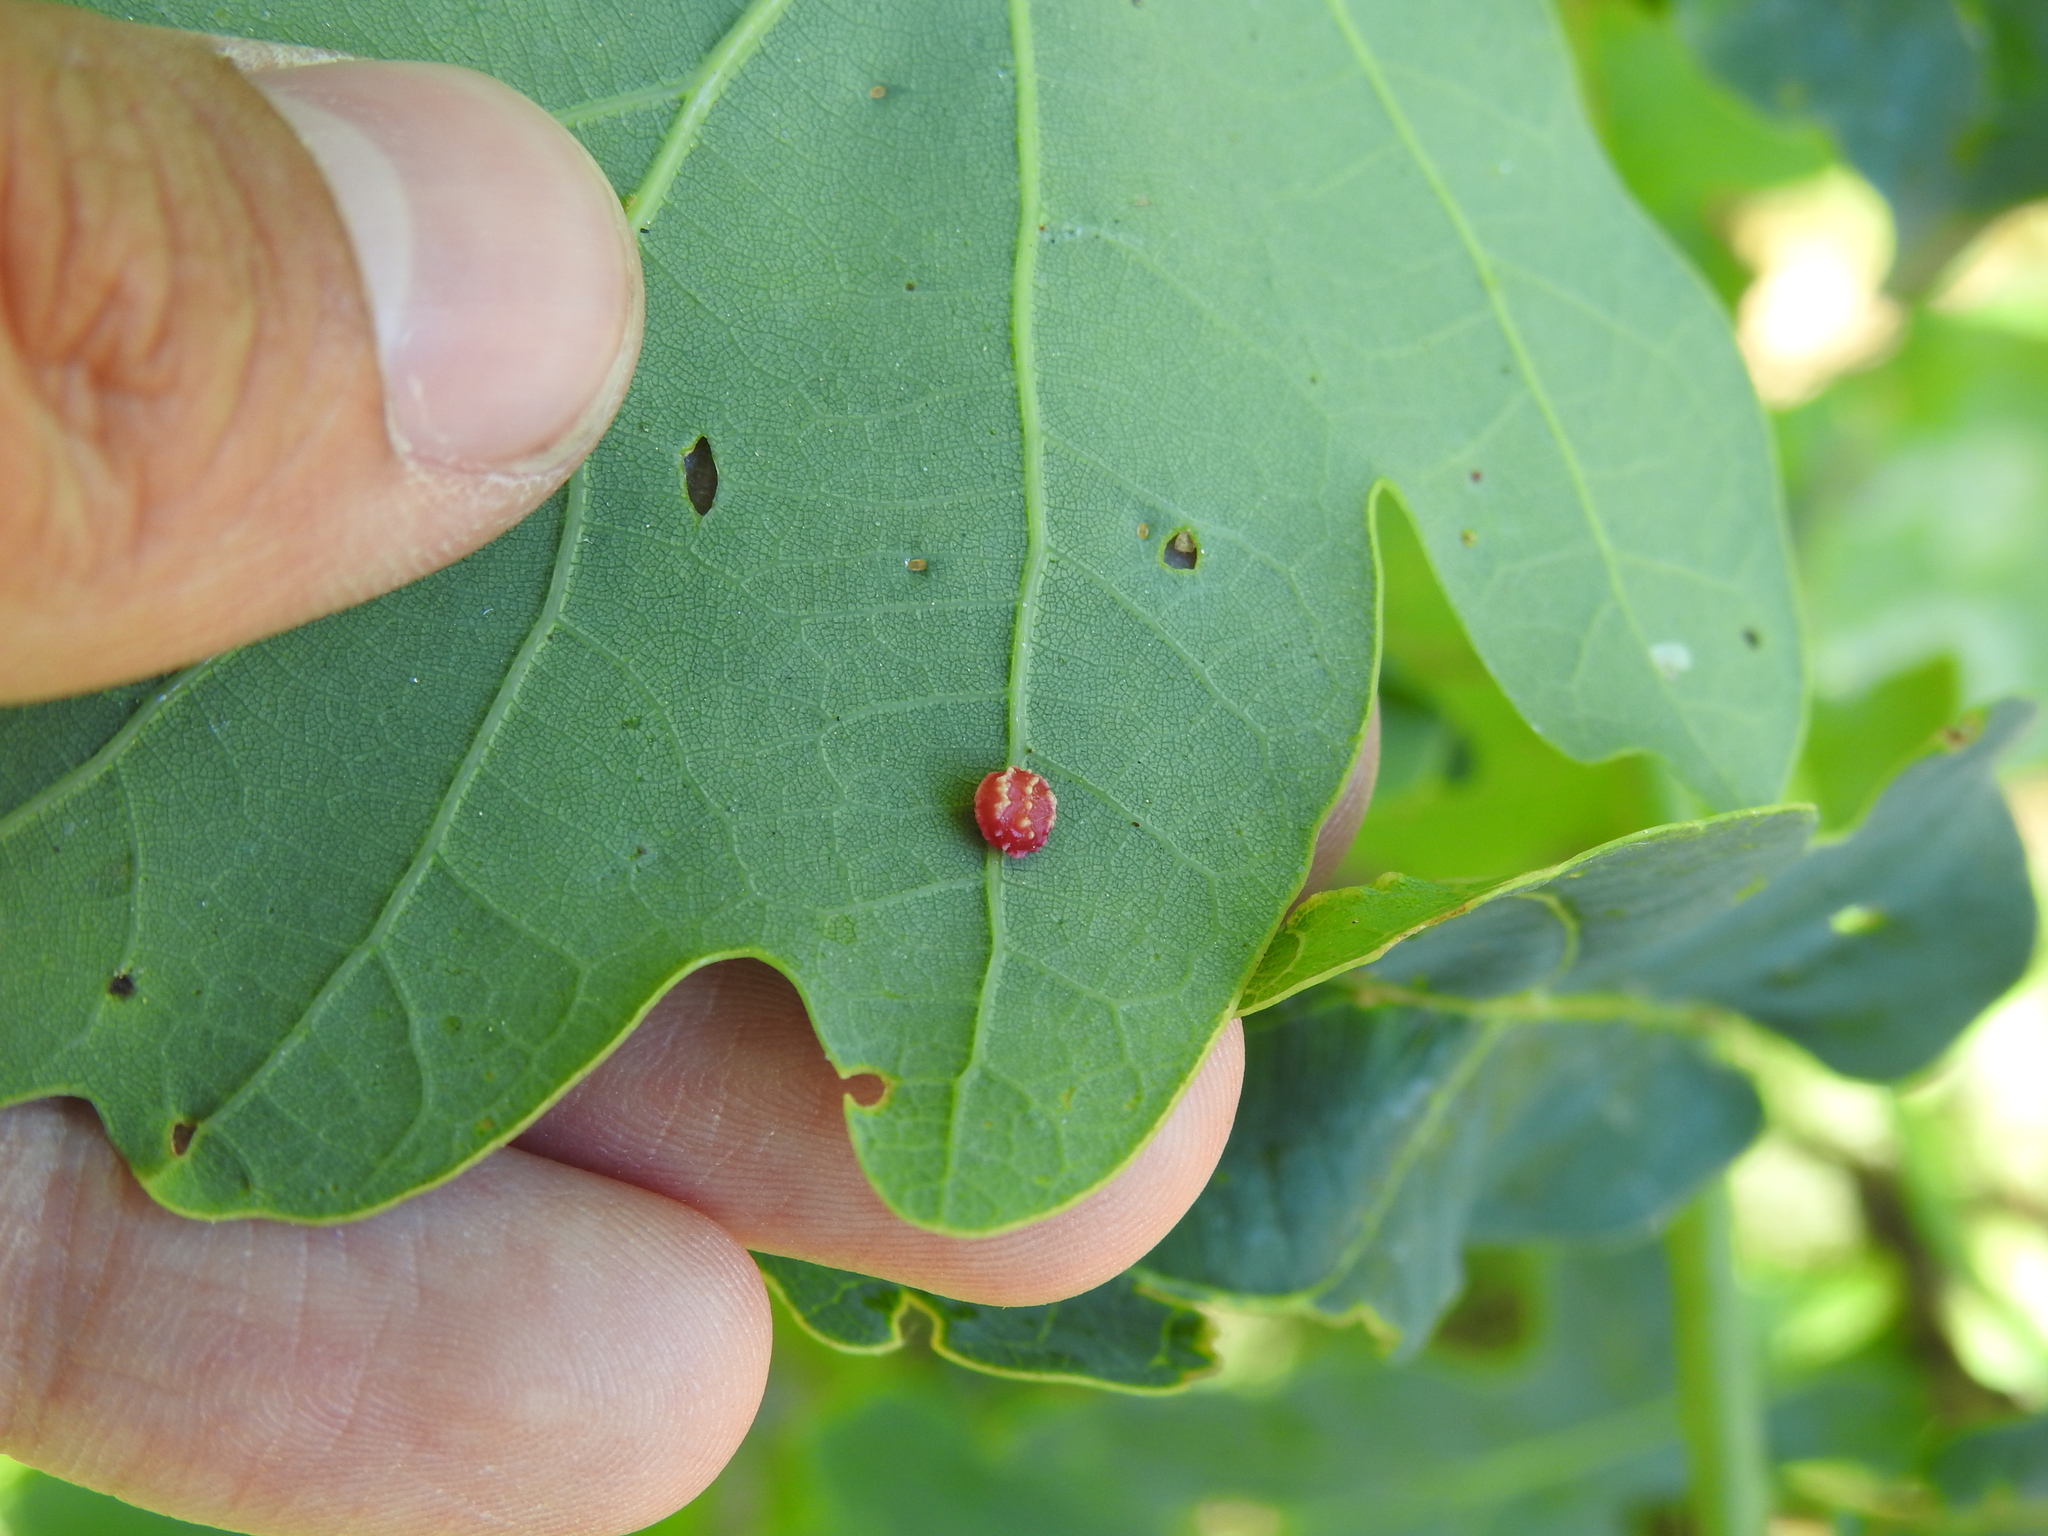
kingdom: Animalia
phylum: Arthropoda
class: Insecta
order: Hymenoptera
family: Cynipidae
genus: Cynips
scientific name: Cynips longiventris
